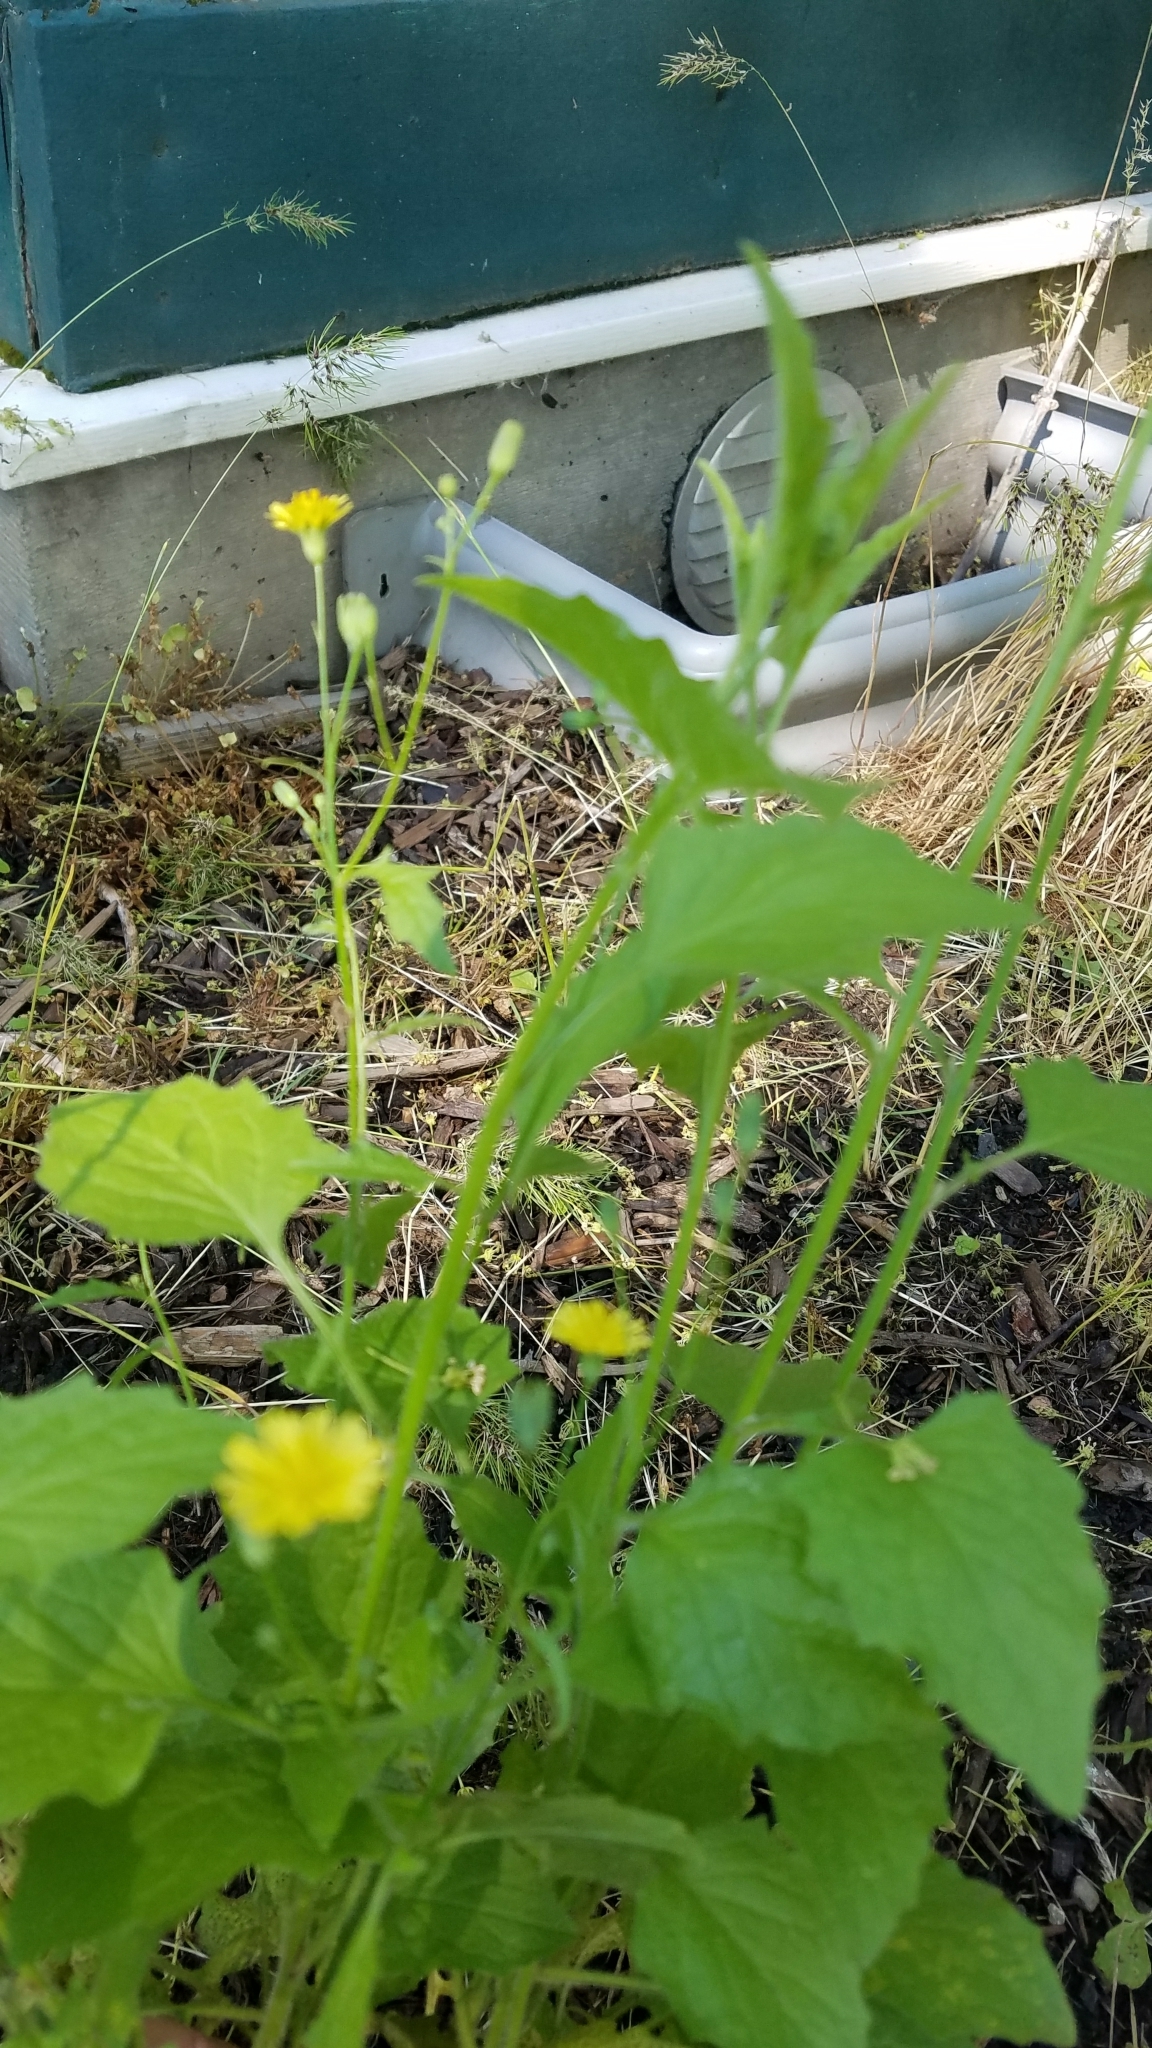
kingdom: Plantae
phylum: Tracheophyta
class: Magnoliopsida
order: Asterales
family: Asteraceae
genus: Lapsana
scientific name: Lapsana communis
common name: Nipplewort
